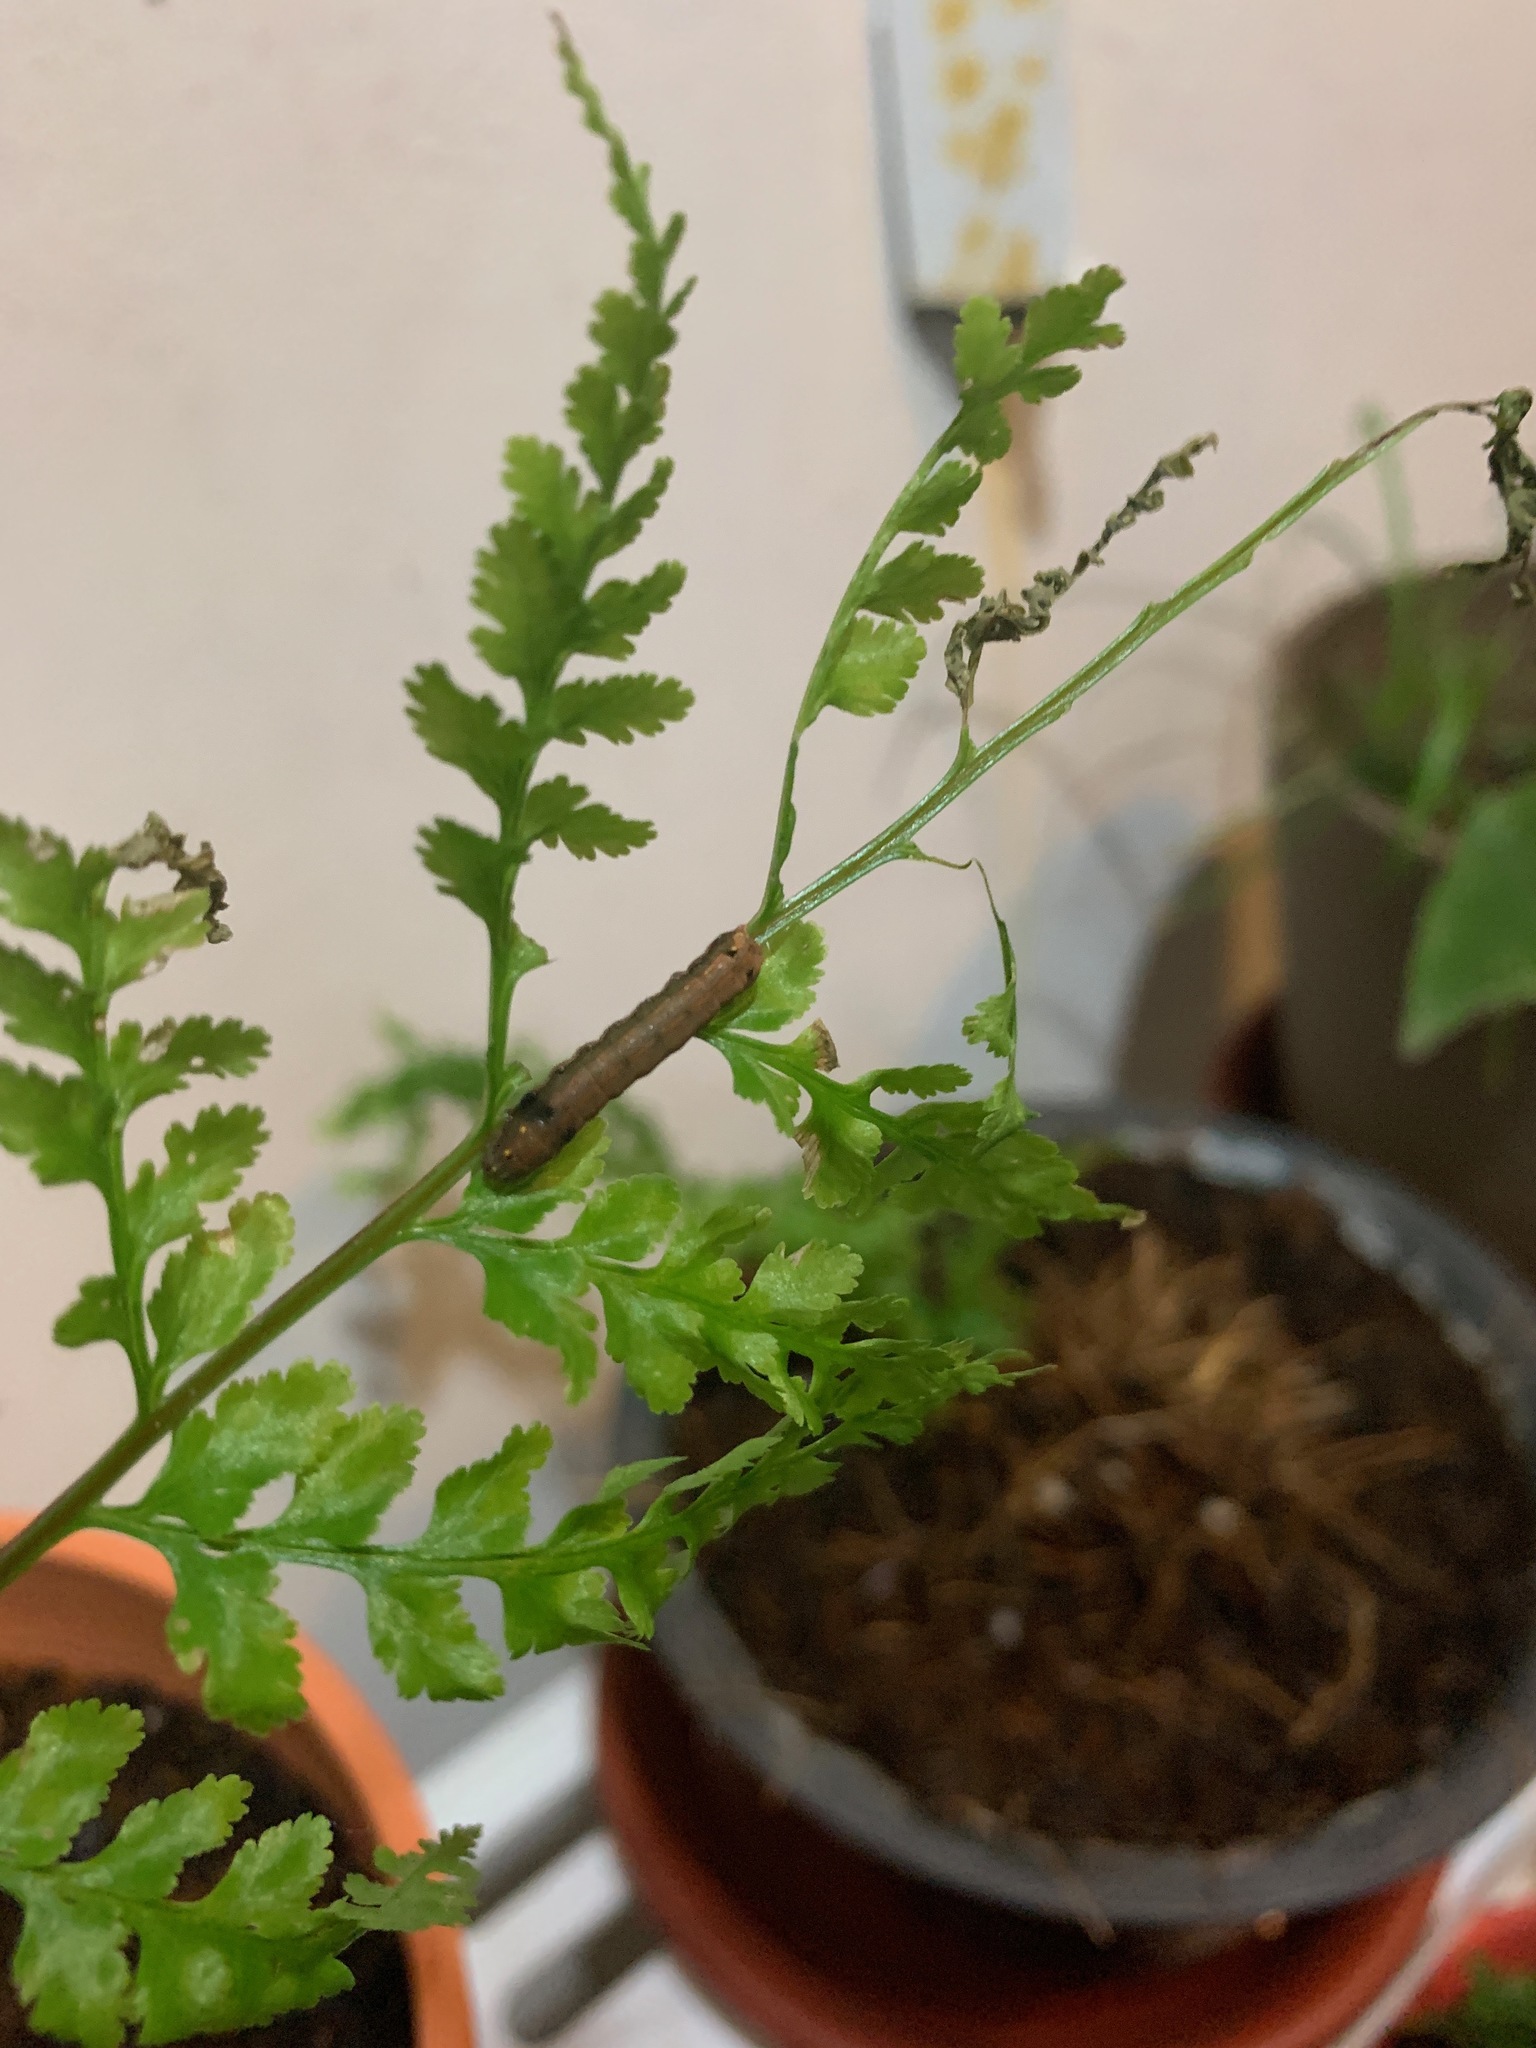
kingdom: Animalia
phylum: Arthropoda
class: Insecta
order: Lepidoptera
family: Noctuidae
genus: Spodoptera
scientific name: Spodoptera litura
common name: Asian cotton leafworm
